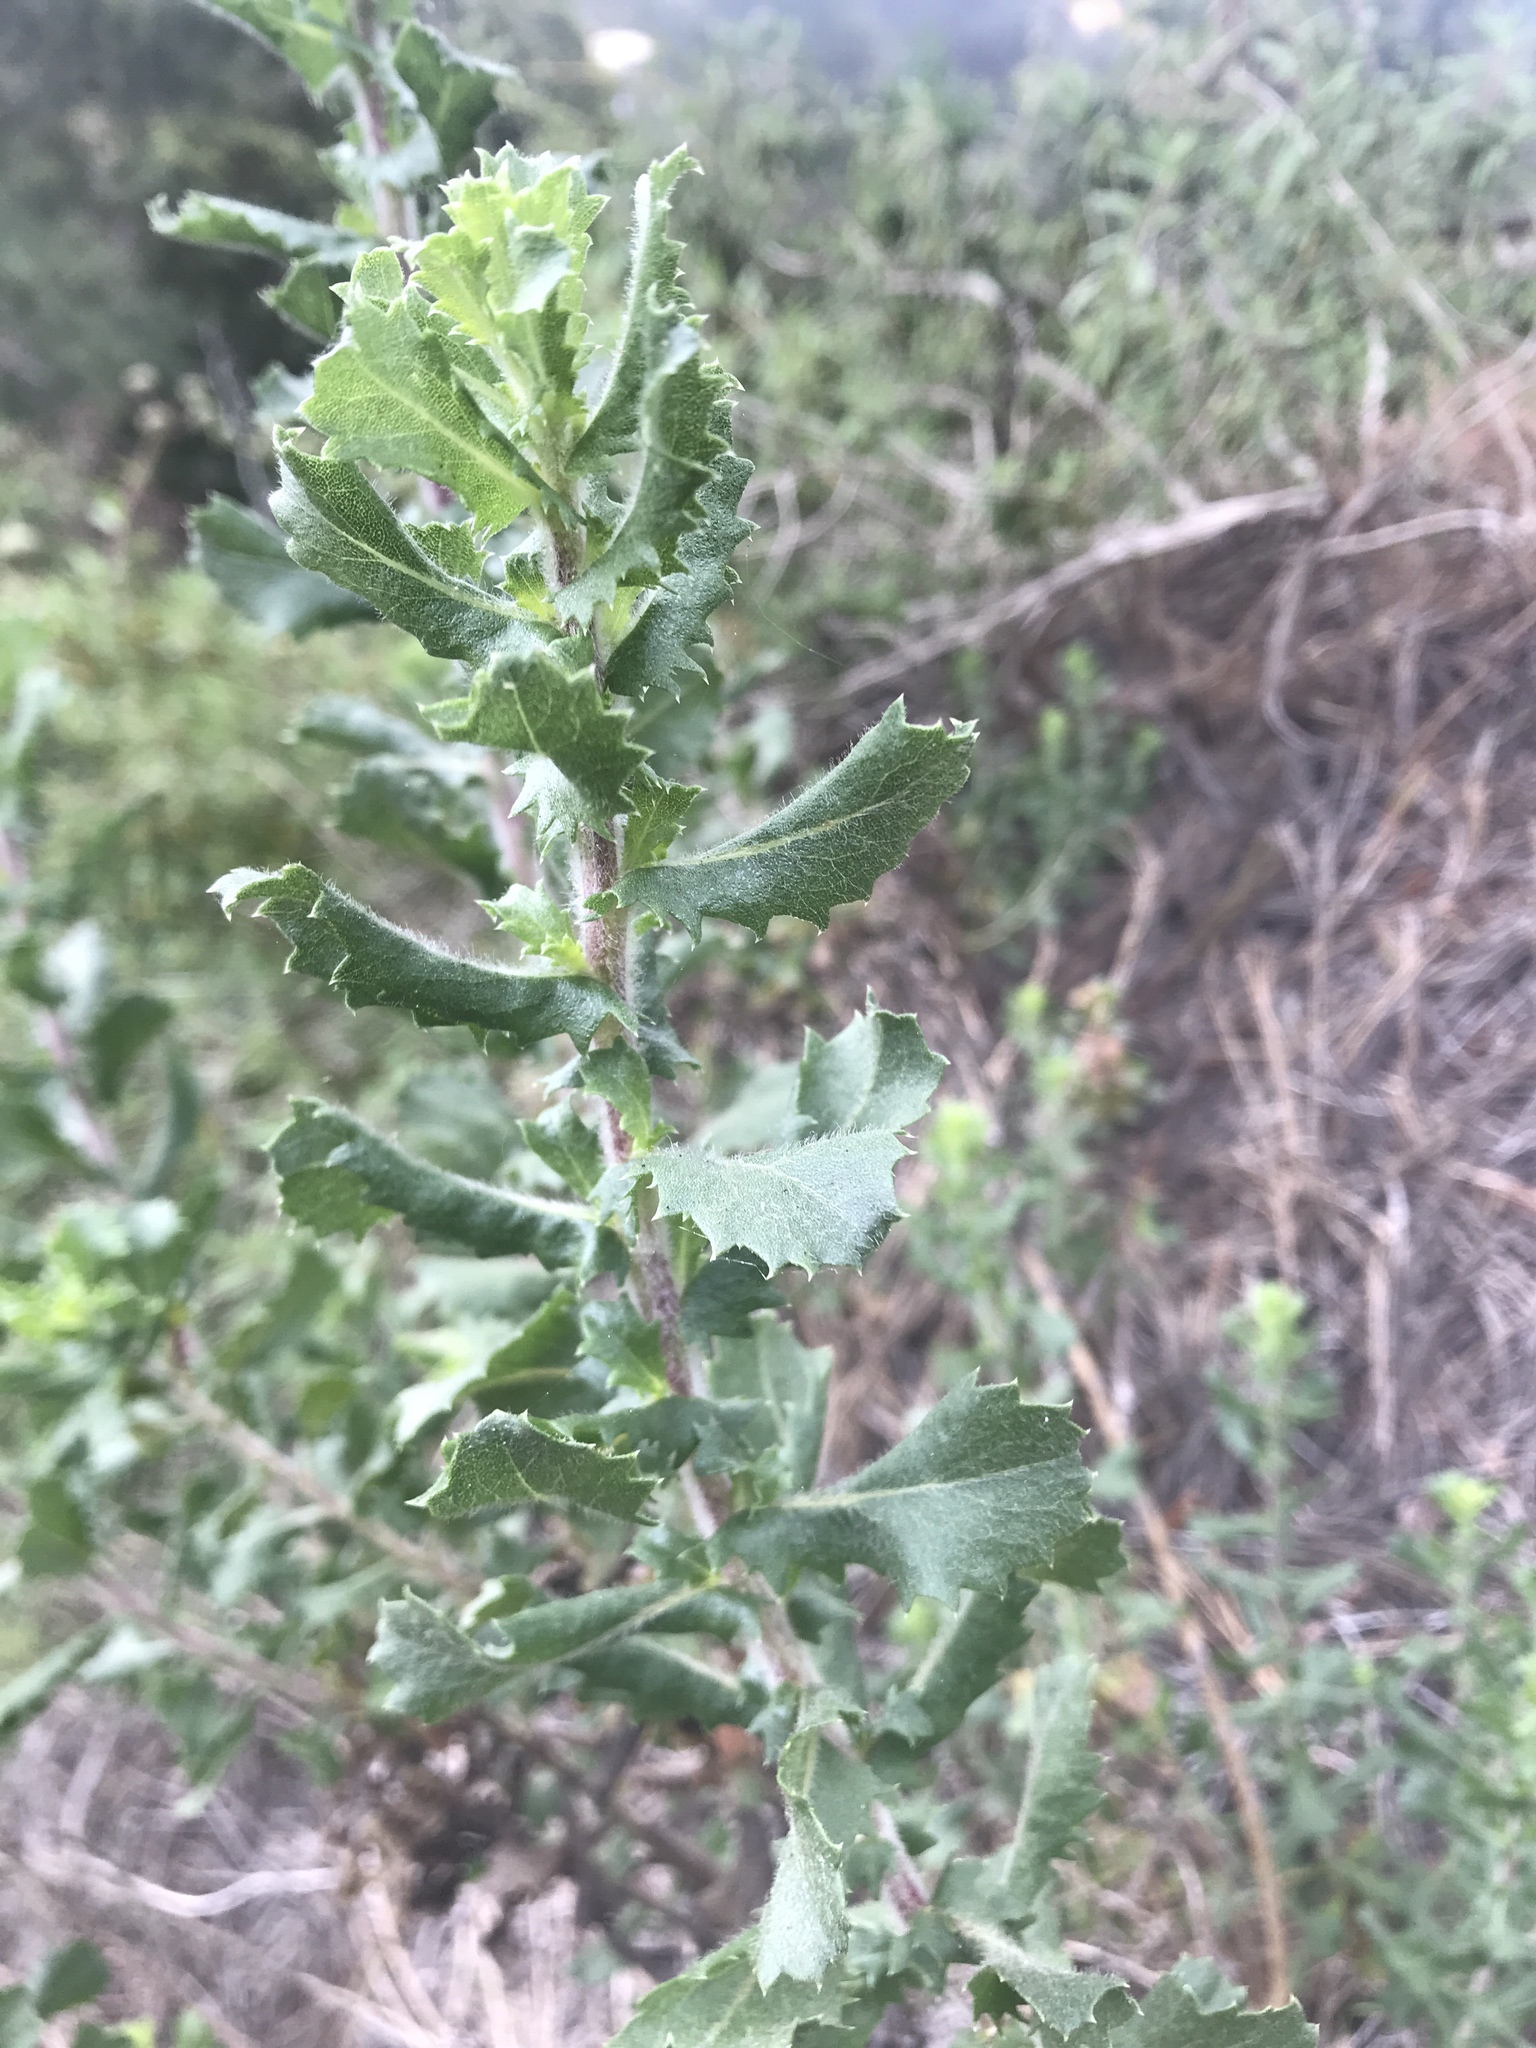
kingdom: Plantae
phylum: Tracheophyta
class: Magnoliopsida
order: Asterales
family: Asteraceae
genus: Hazardia
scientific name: Hazardia squarrosa
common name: Saw-tooth goldenbush
